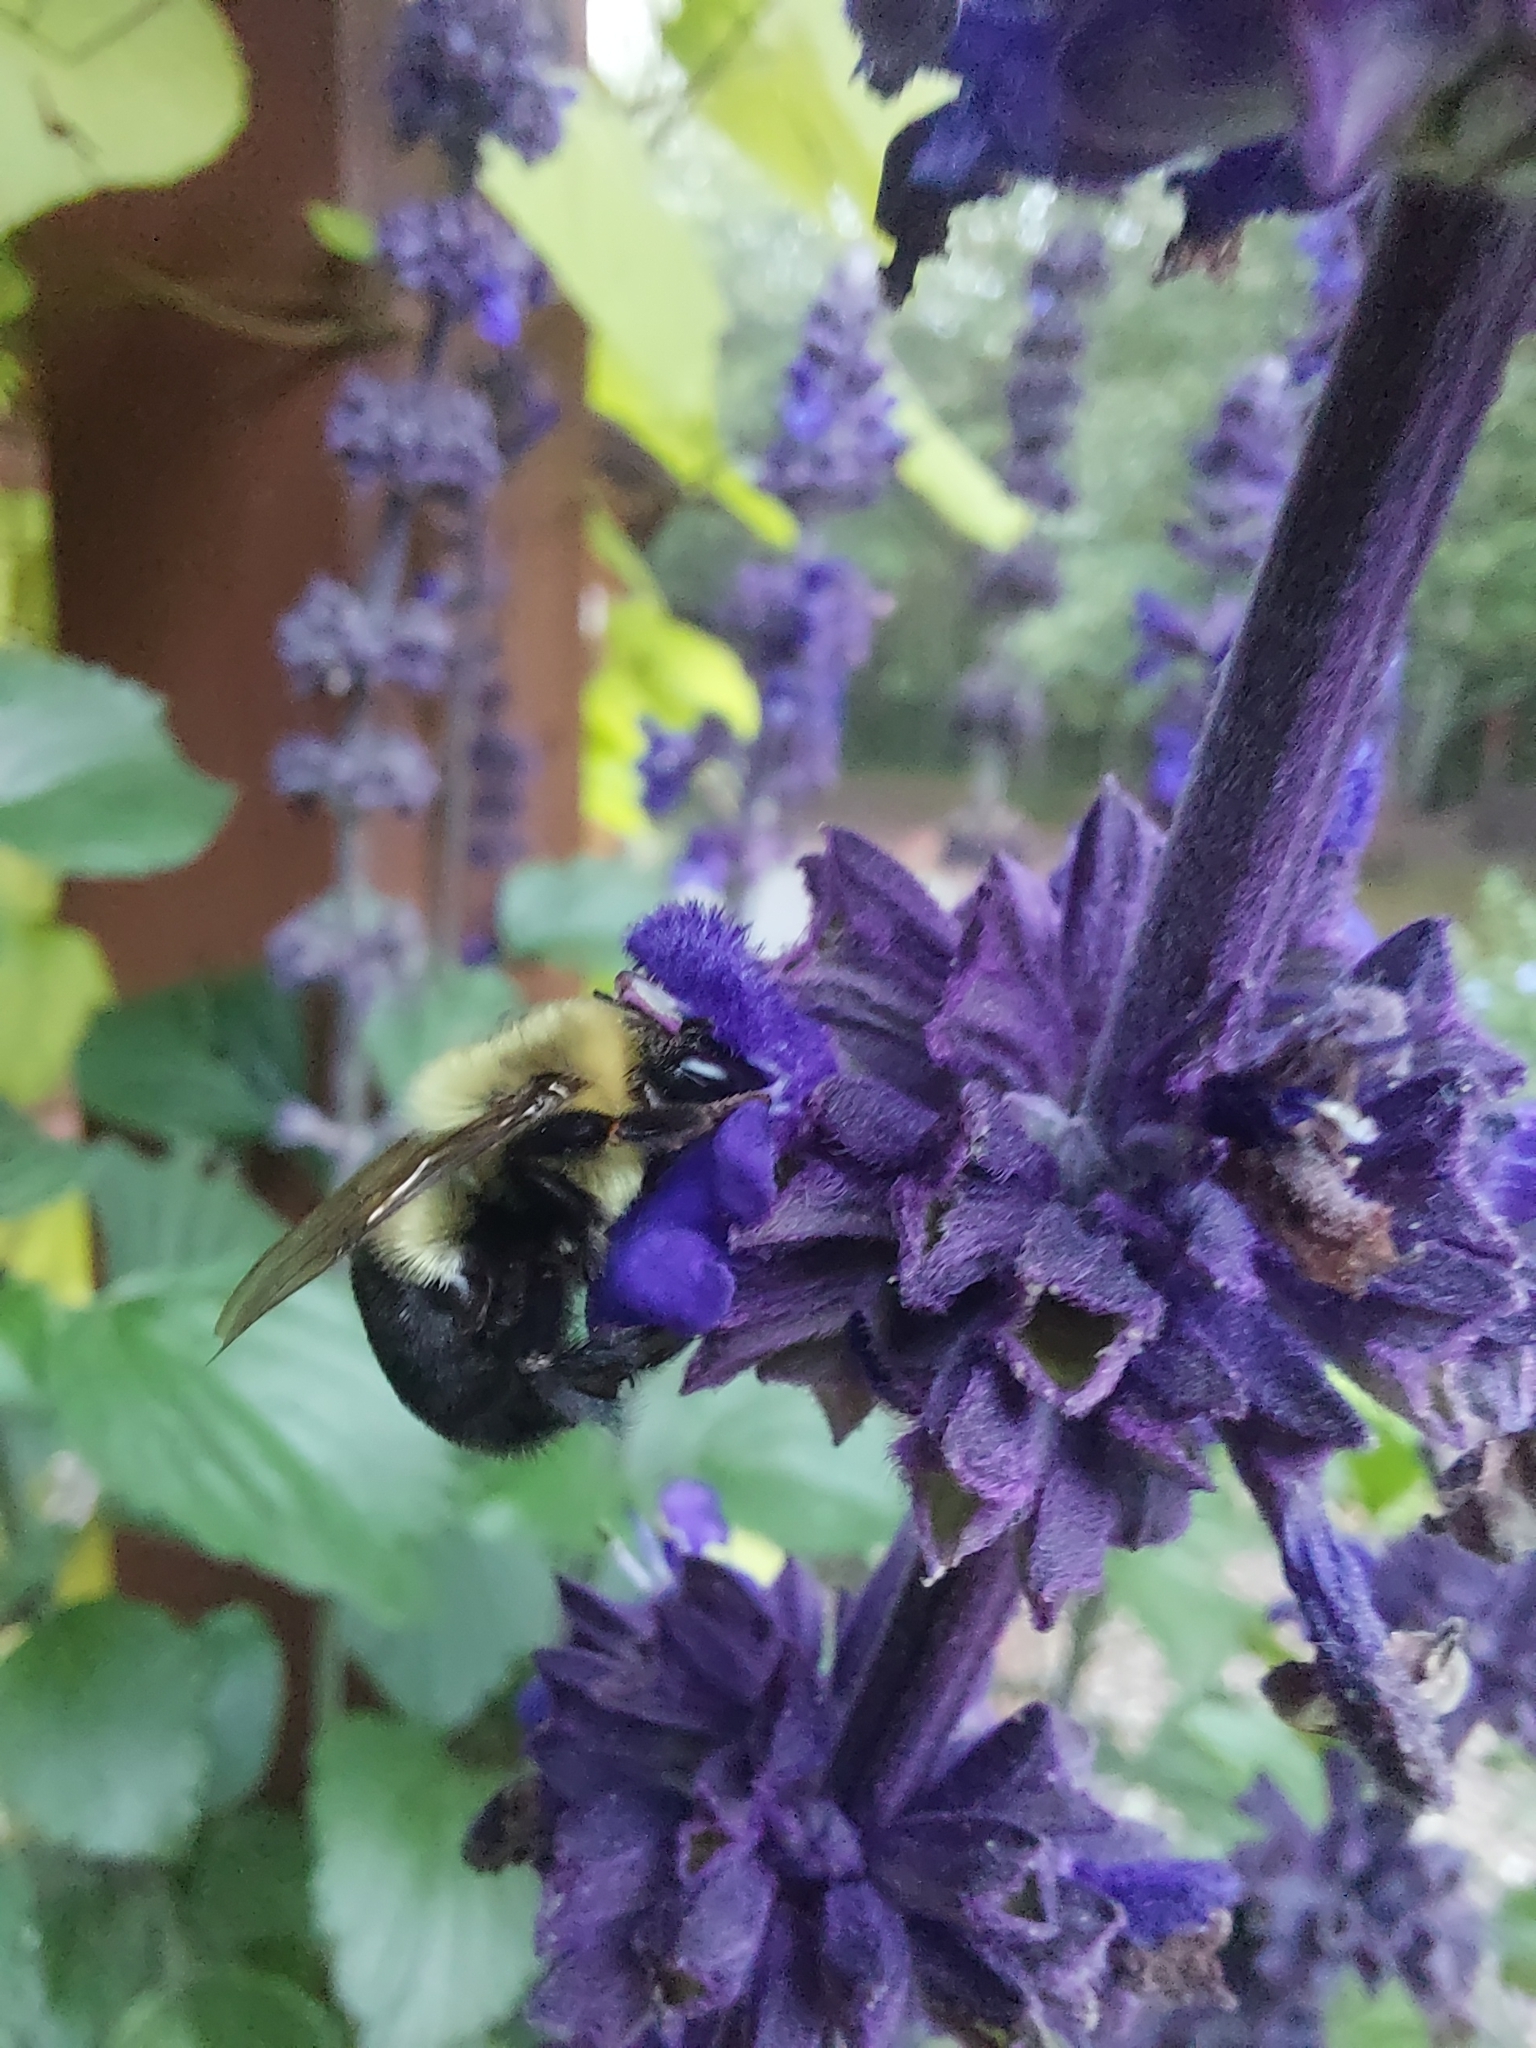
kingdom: Animalia
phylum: Arthropoda
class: Insecta
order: Hymenoptera
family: Apidae
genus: Bombus
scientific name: Bombus impatiens
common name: Common eastern bumble bee
